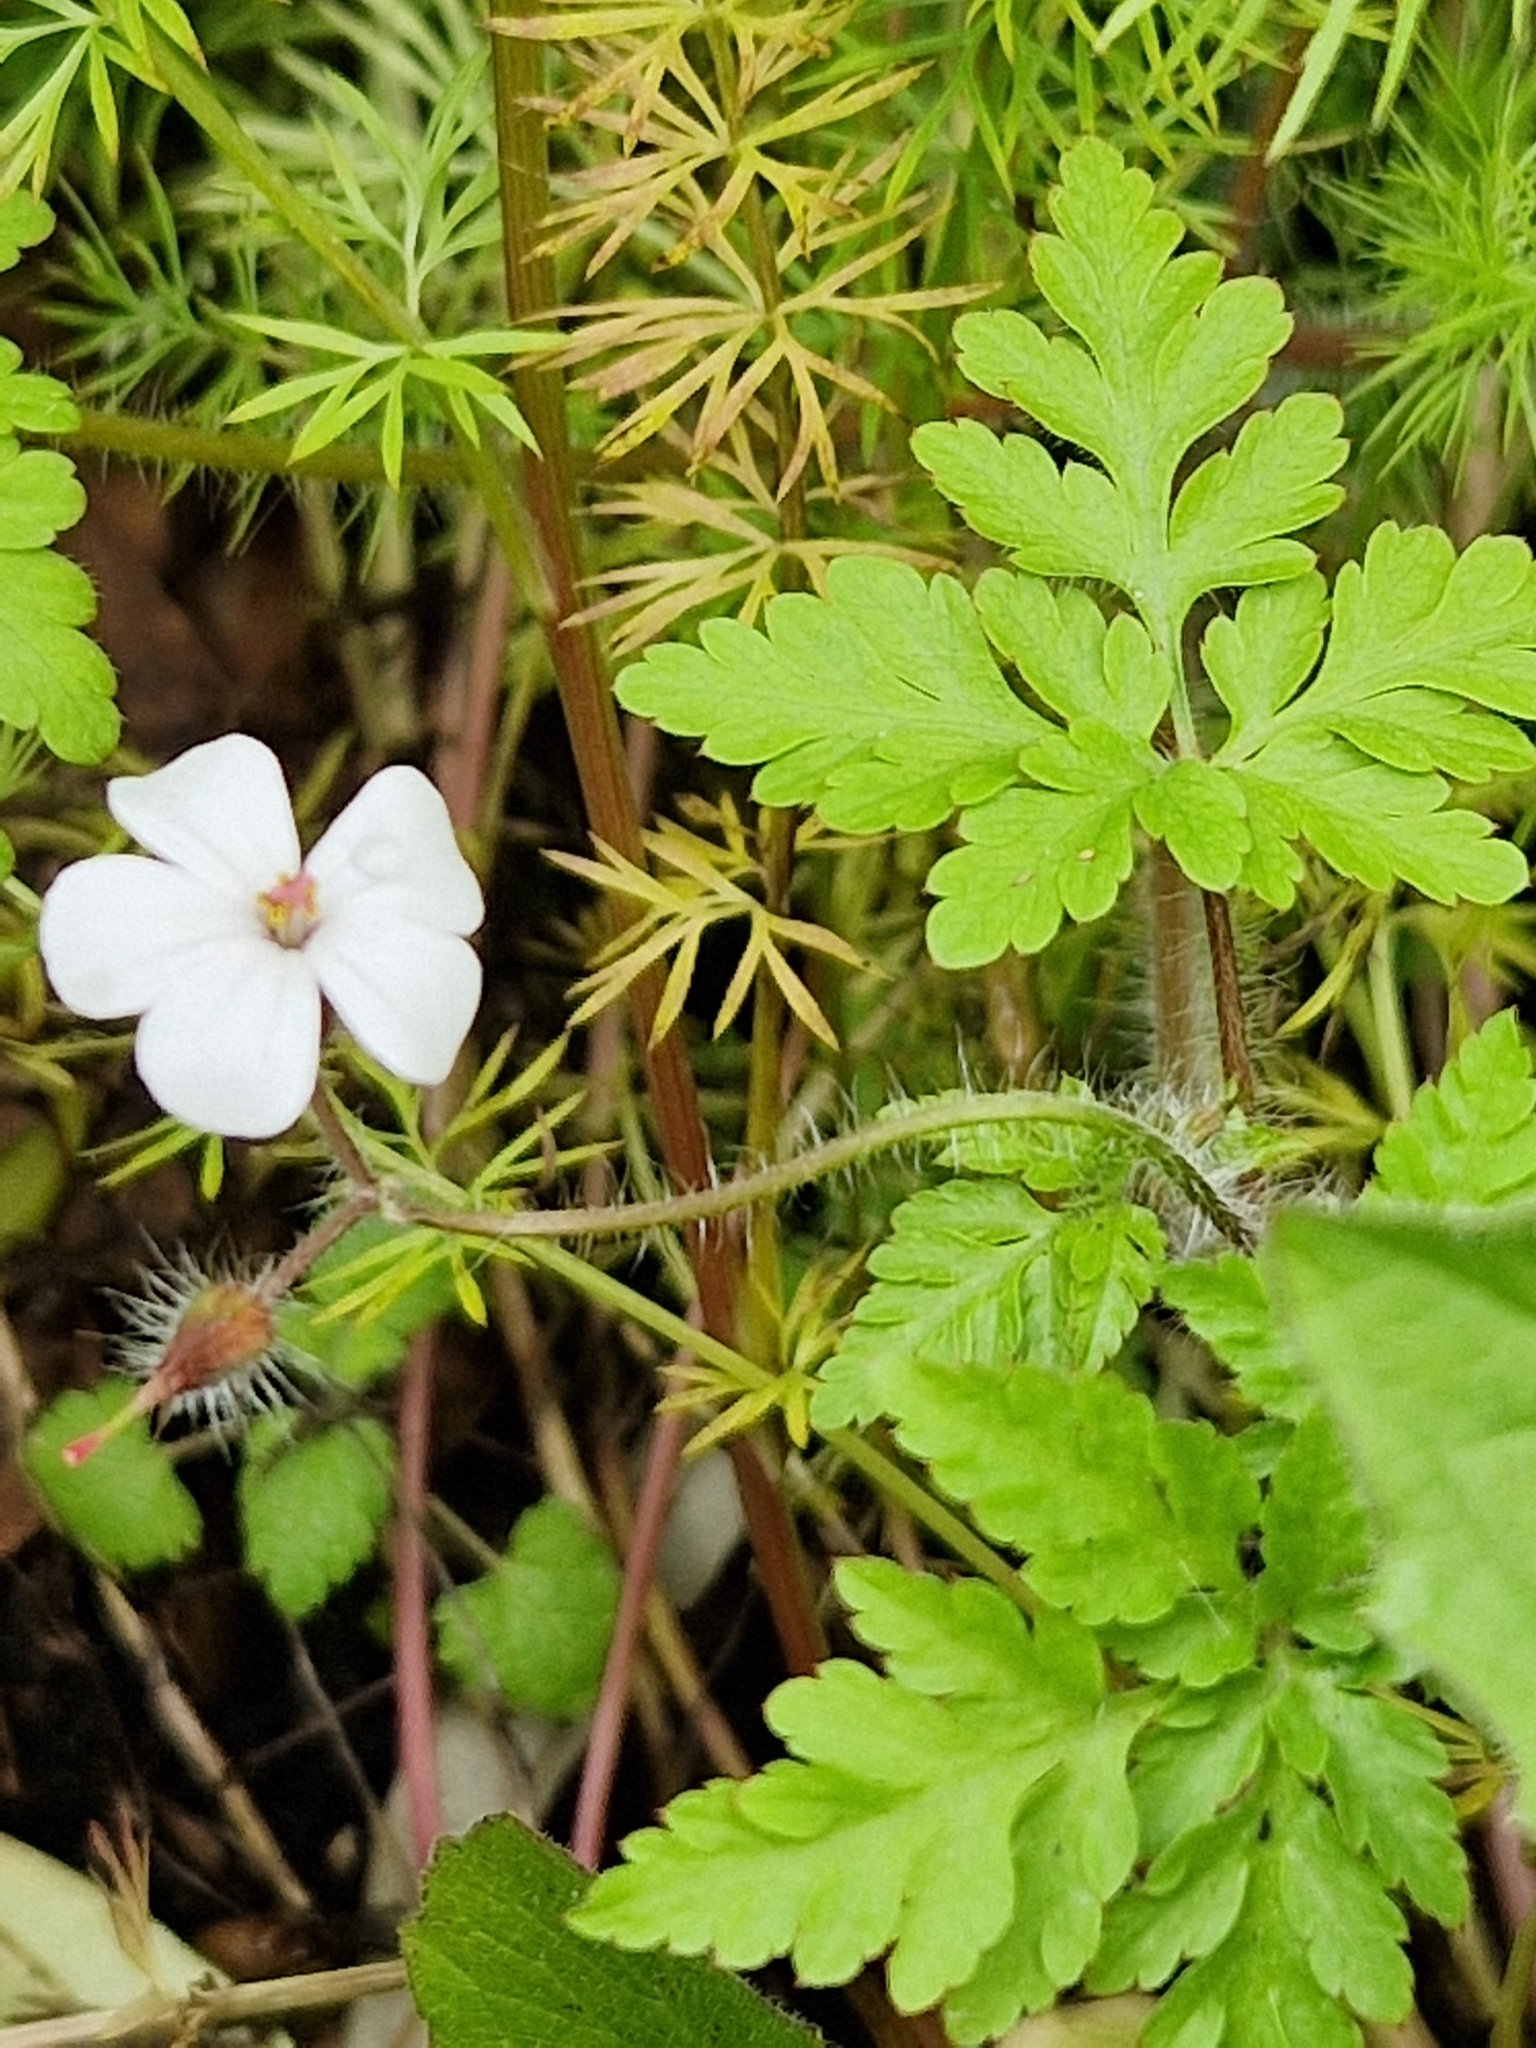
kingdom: Plantae
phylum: Tracheophyta
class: Magnoliopsida
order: Geraniales
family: Geraniaceae
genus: Geranium
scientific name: Geranium robertianum
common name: Herb-robert
